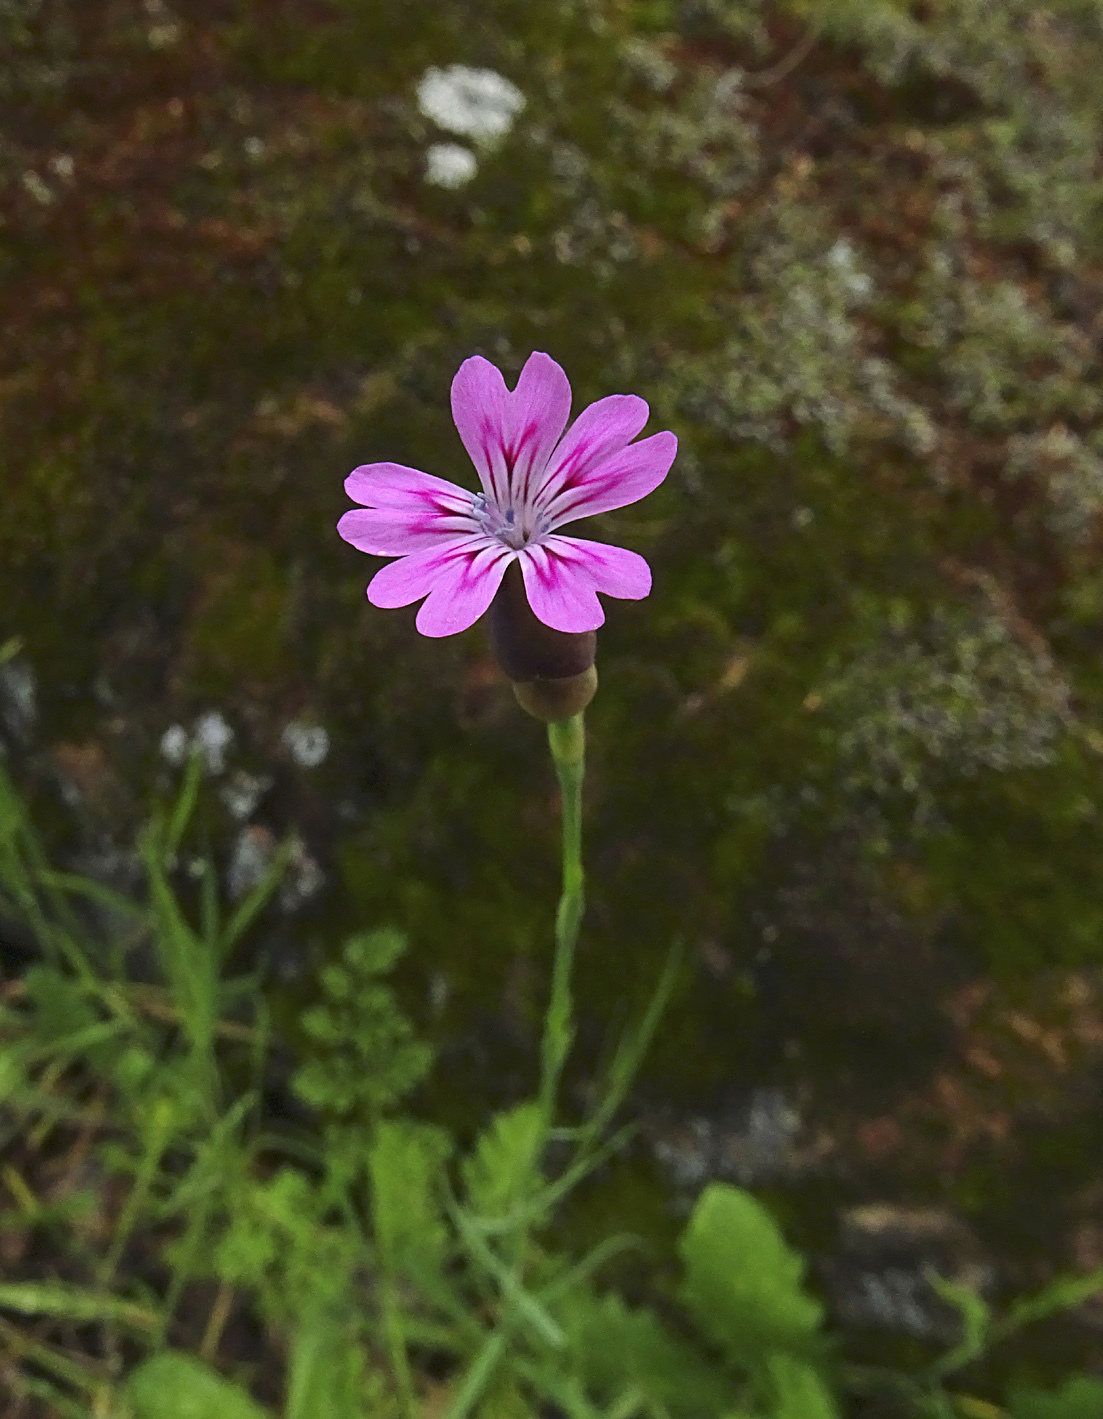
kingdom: Plantae
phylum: Tracheophyta
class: Magnoliopsida
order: Caryophyllales
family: Caryophyllaceae
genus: Petrorhagia
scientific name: Petrorhagia dubia
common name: Hairypink
